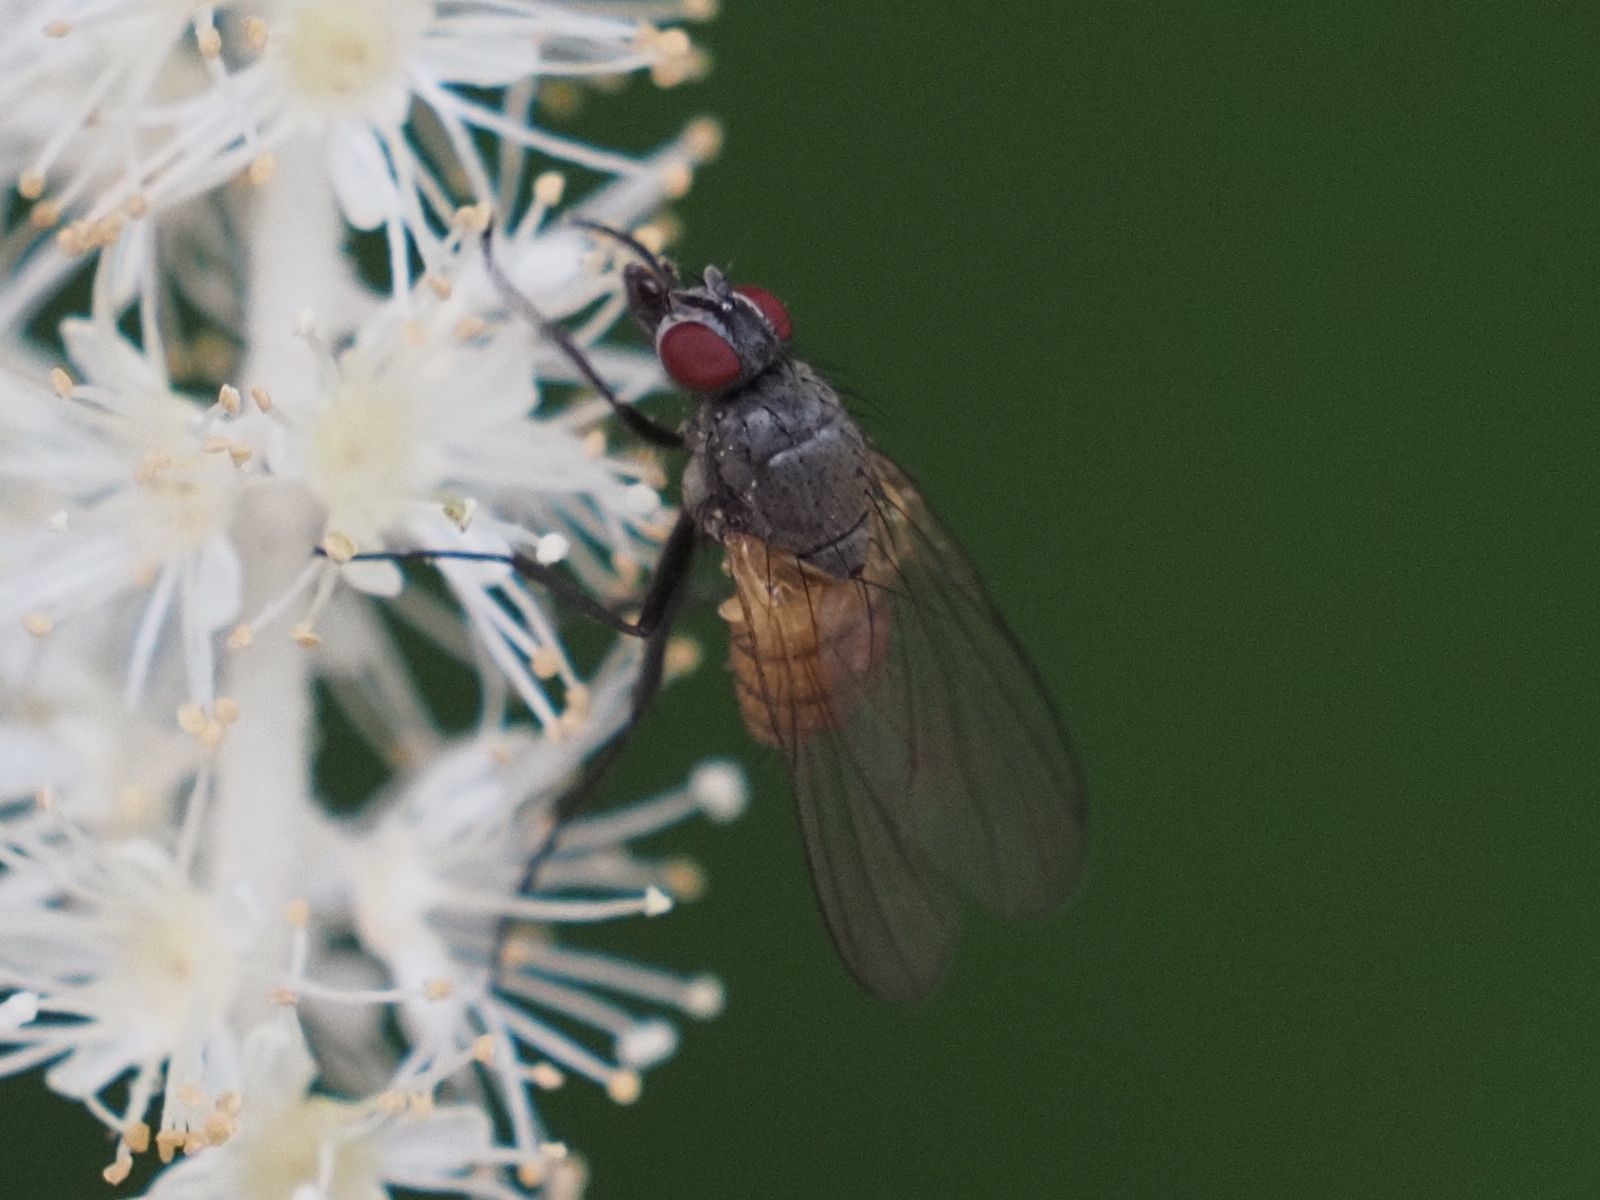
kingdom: Animalia
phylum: Arthropoda
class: Insecta
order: Diptera
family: Muscidae
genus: Thricops
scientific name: Thricops semicinereus
